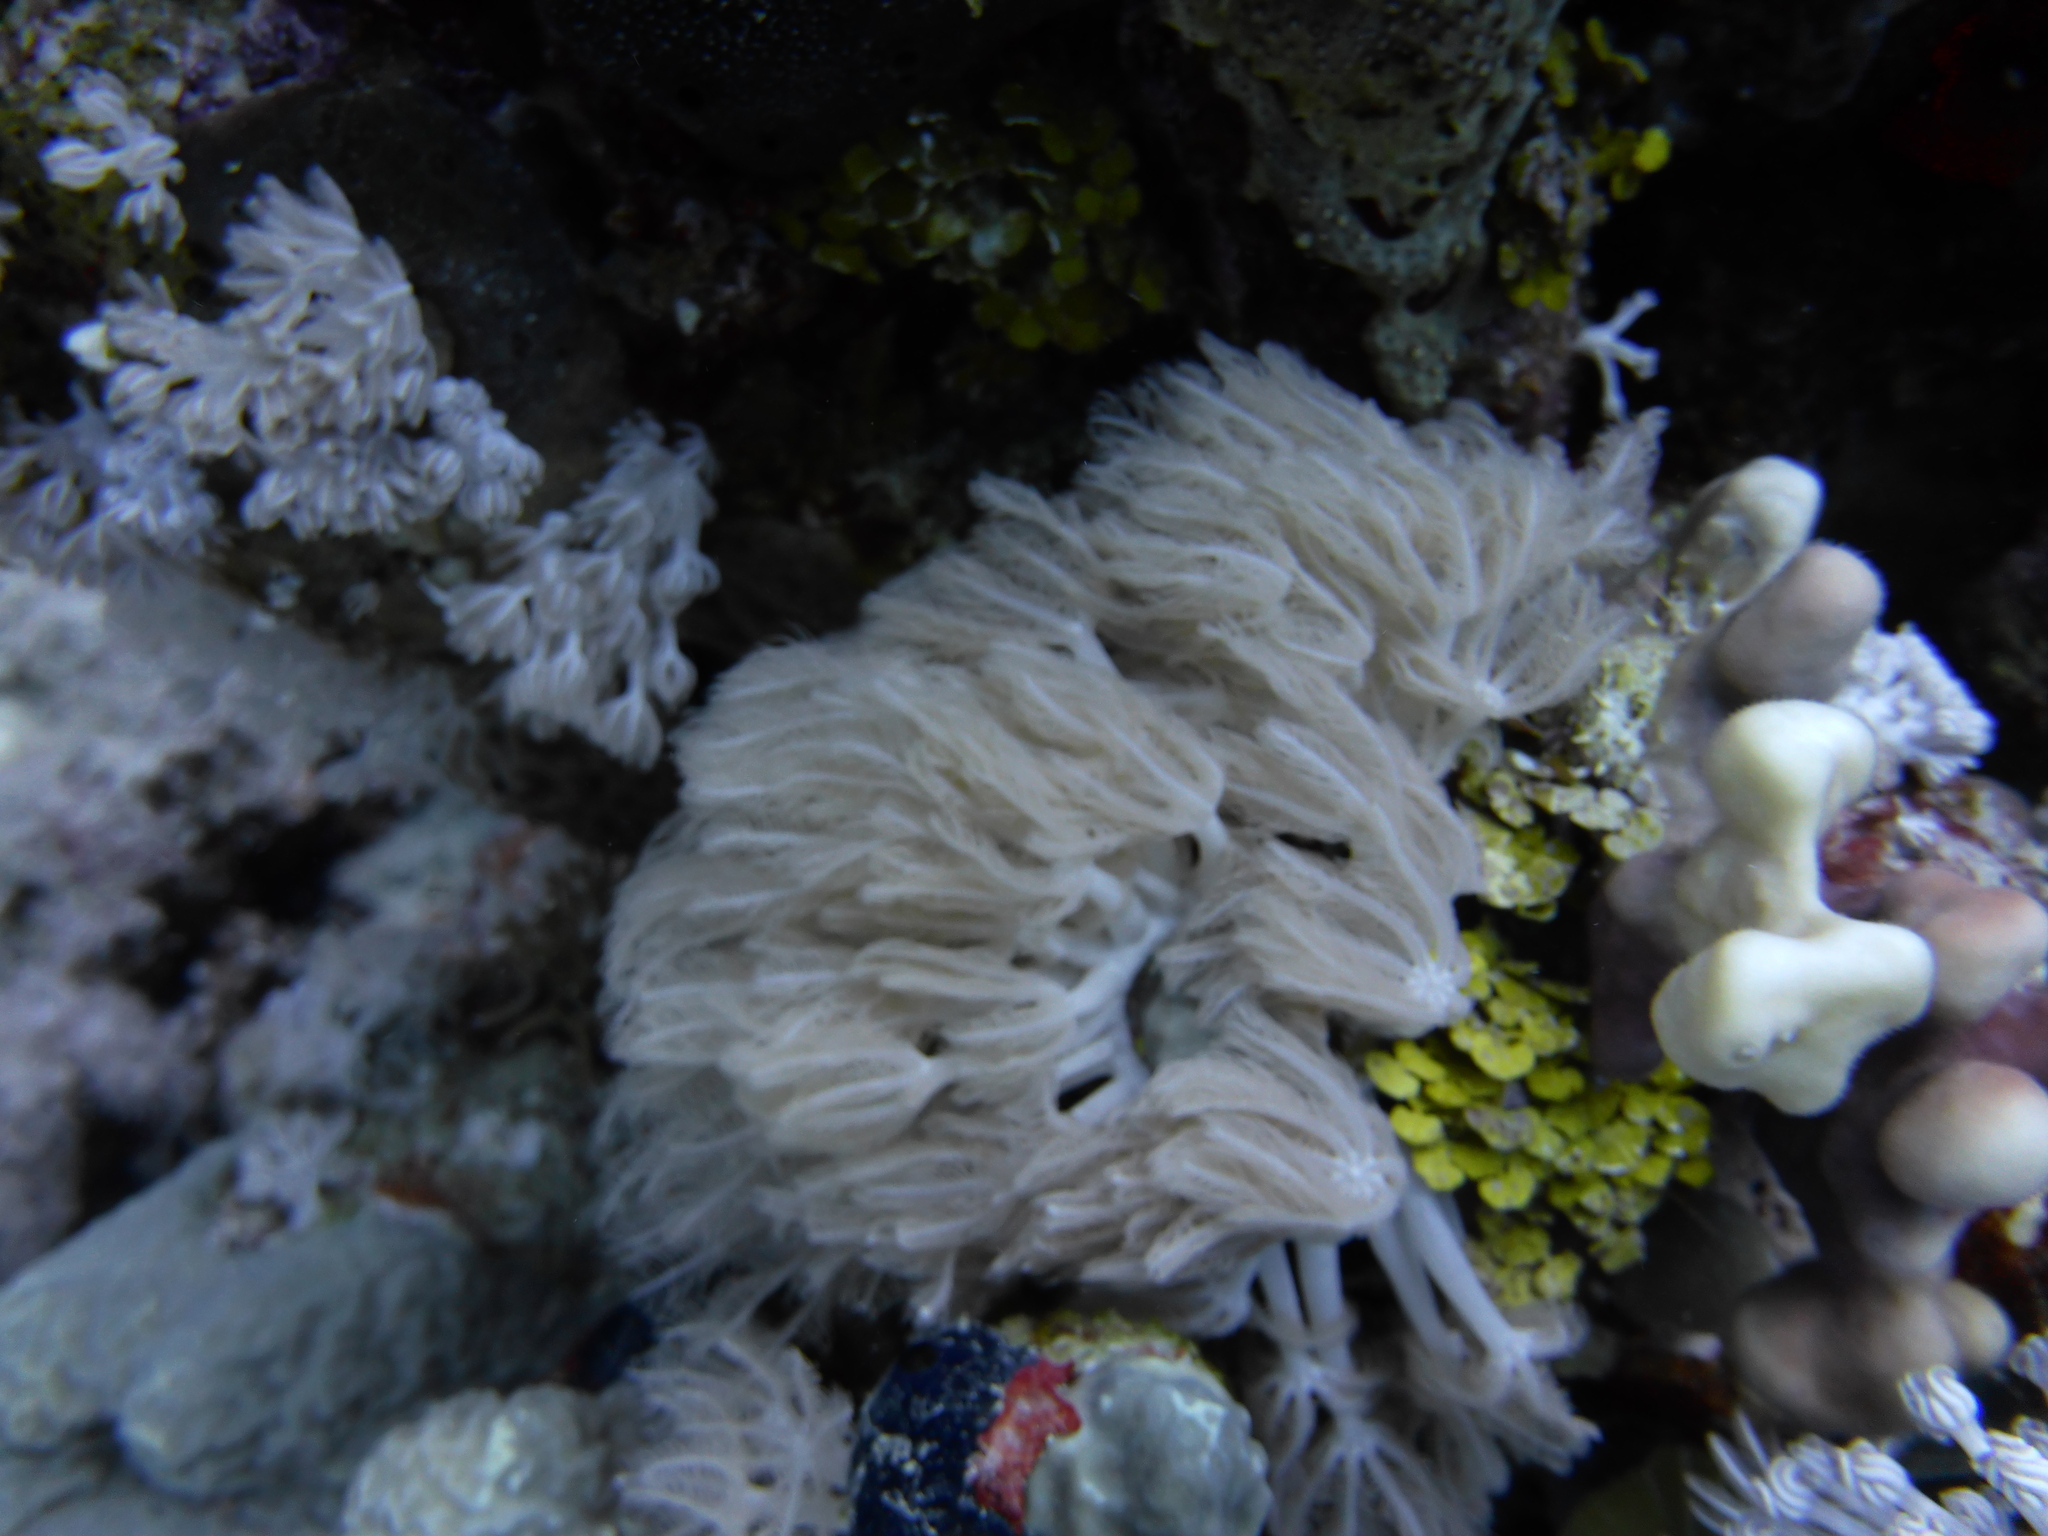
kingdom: Animalia
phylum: Cnidaria
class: Anthozoa
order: Malacalcyonacea
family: Xeniidae
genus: Anthelia
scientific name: Anthelia glauca
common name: Pulse coral
